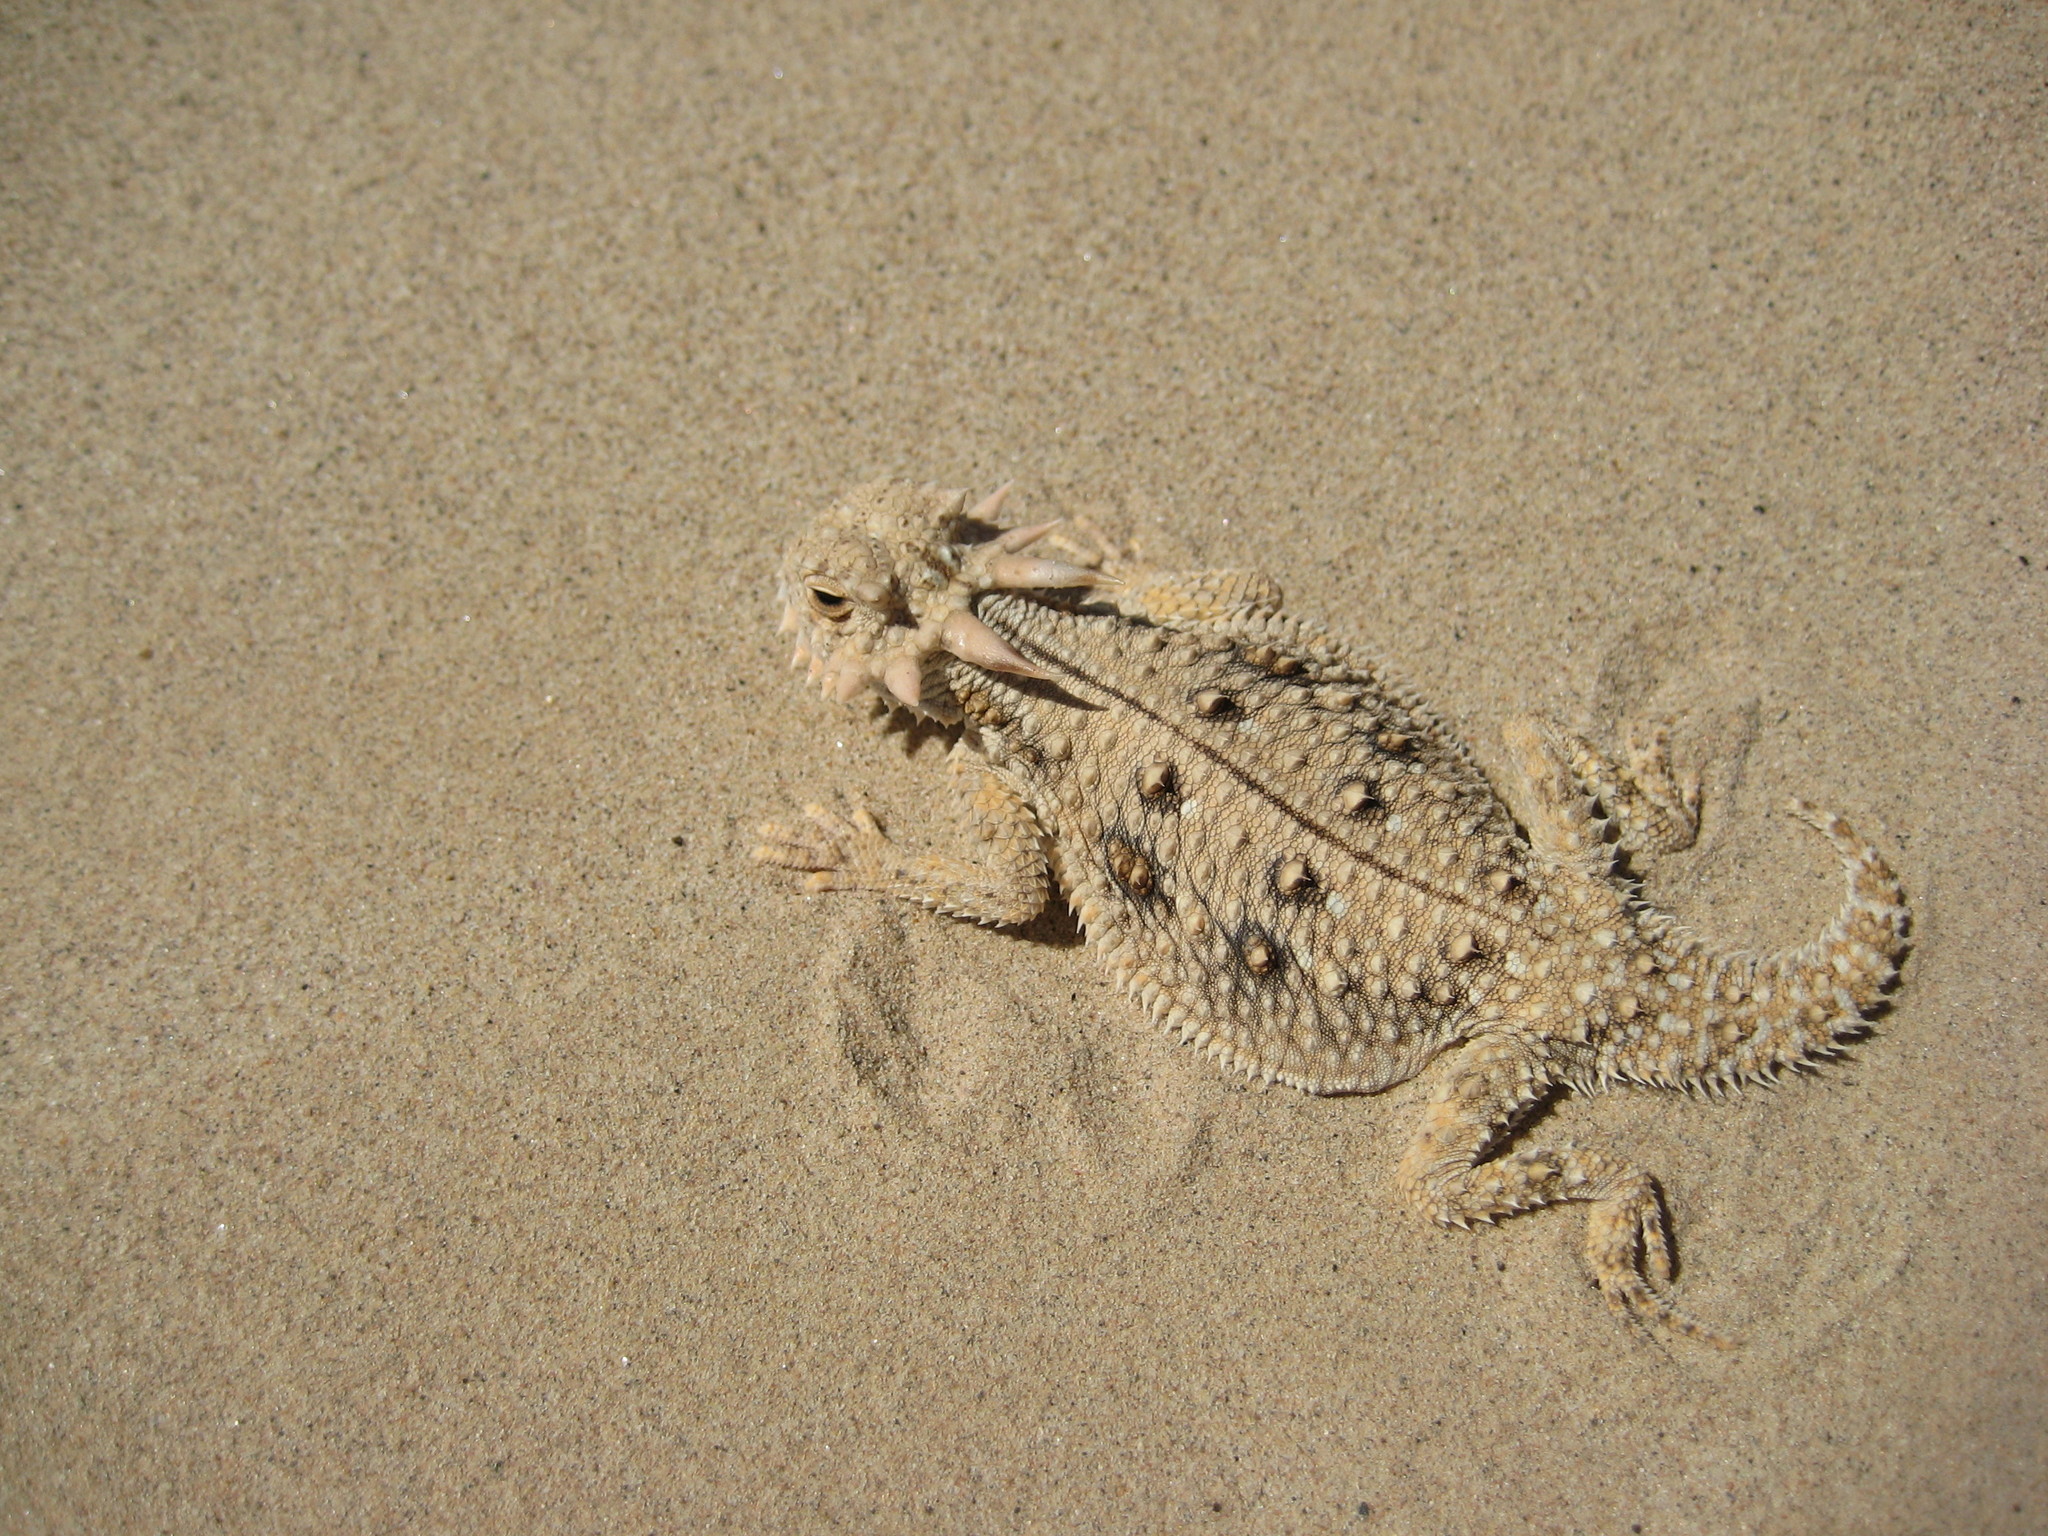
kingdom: Animalia
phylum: Chordata
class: Squamata
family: Phrynosomatidae
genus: Phrynosoma
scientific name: Phrynosoma mcallii
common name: Flat-tailed horned lizard
